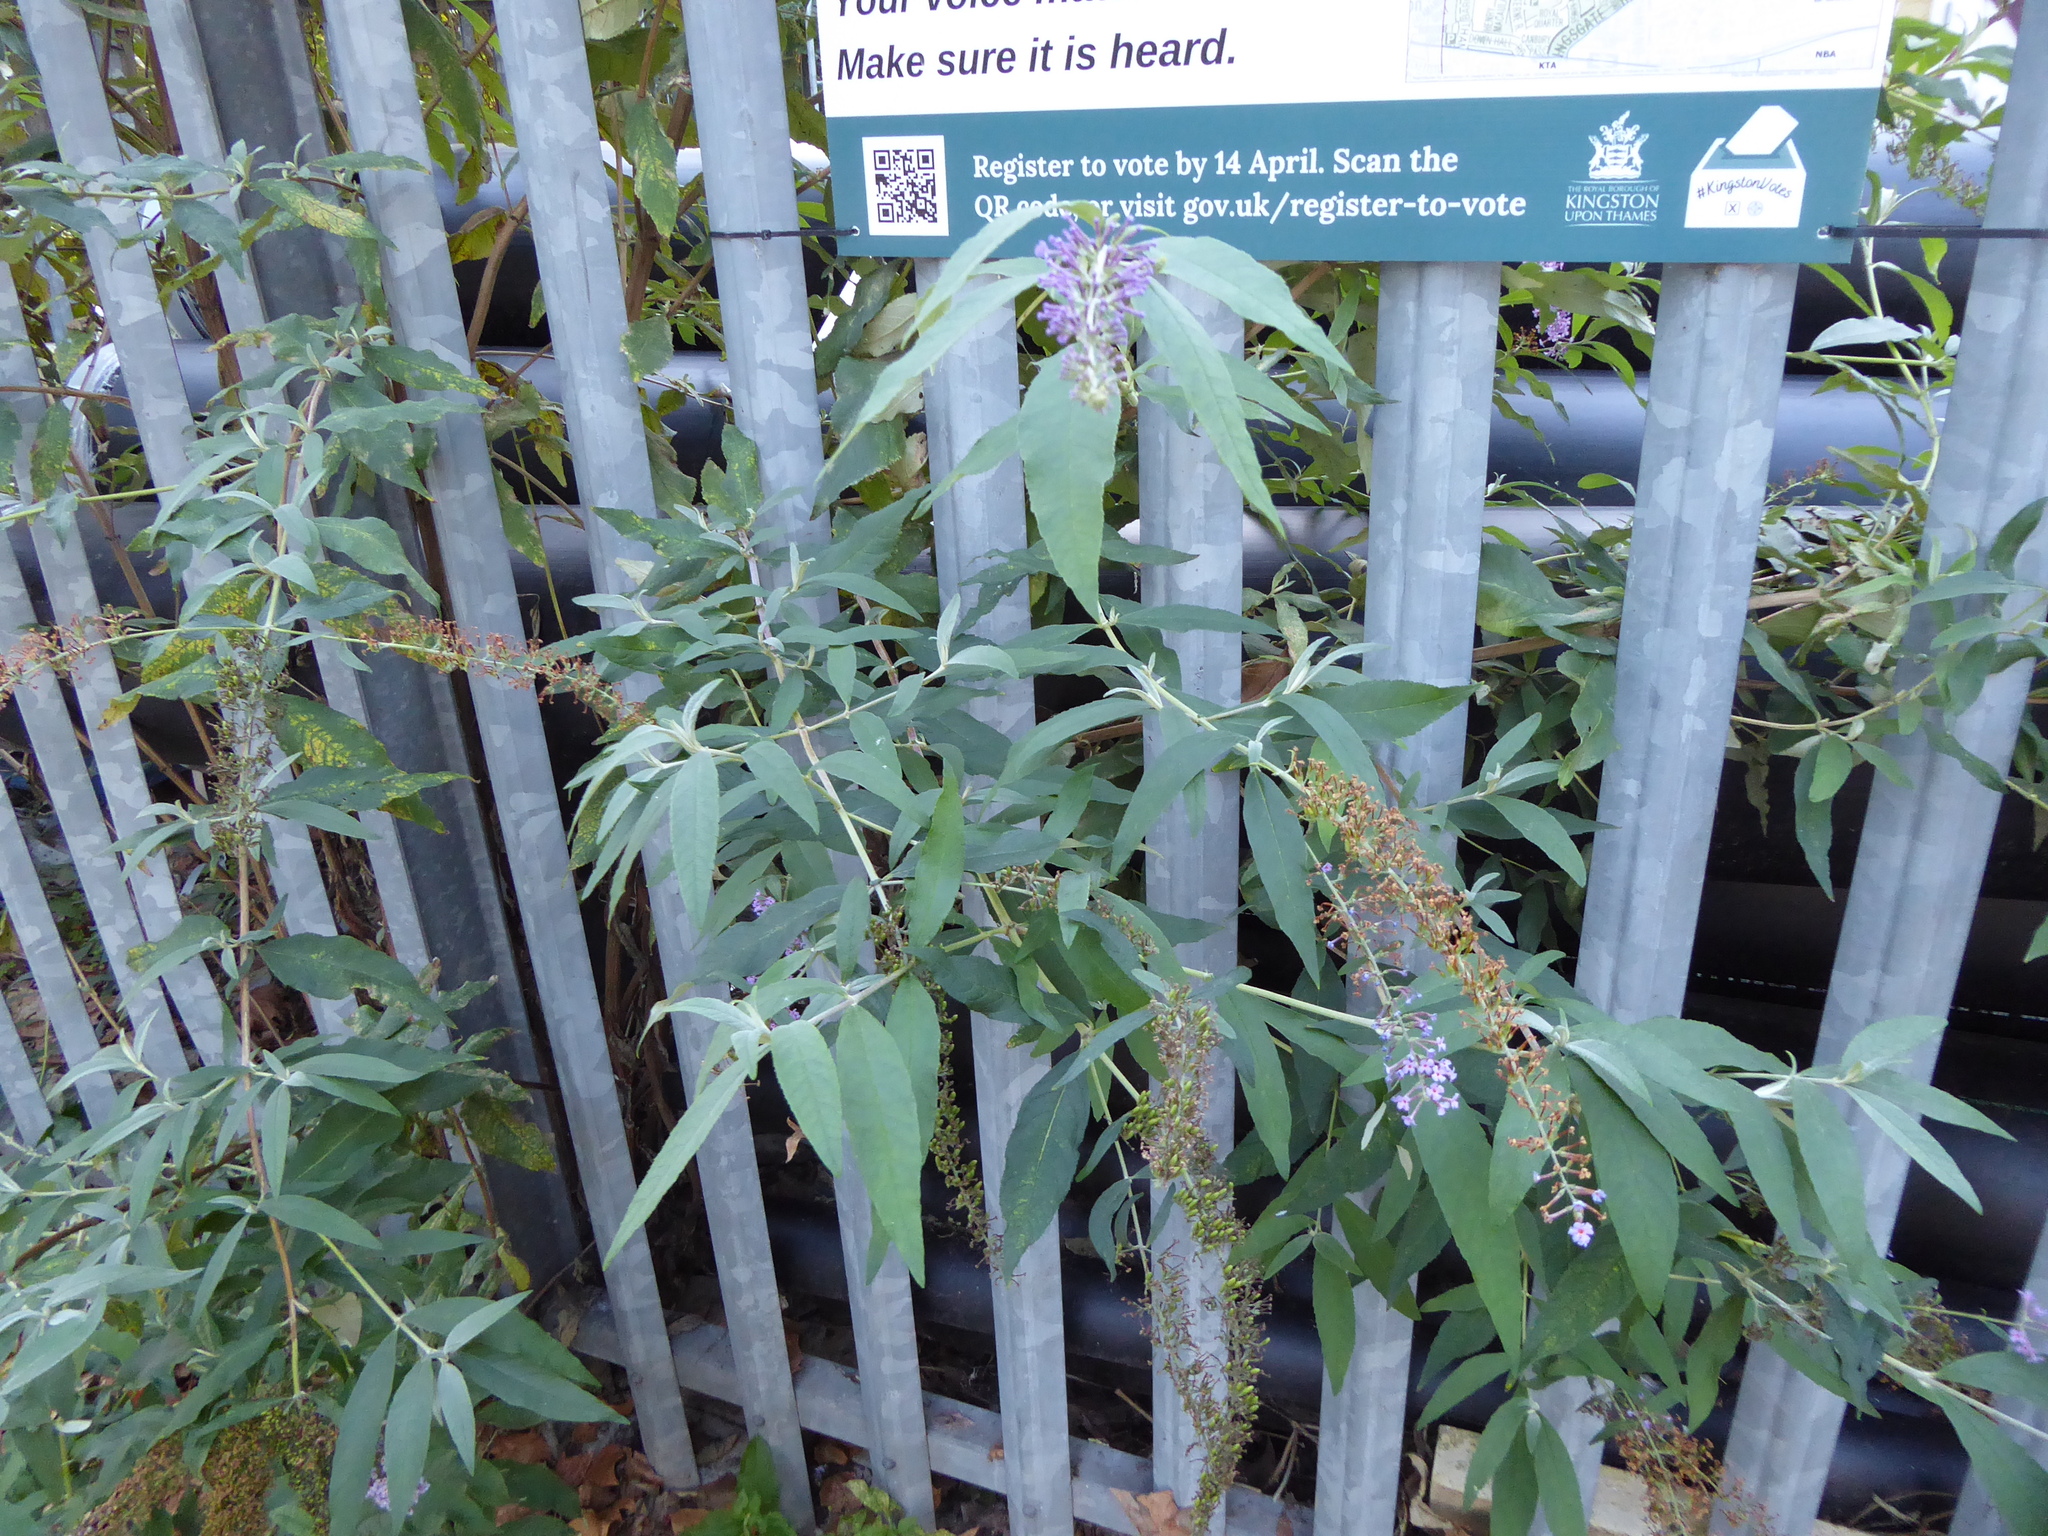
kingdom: Plantae
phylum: Tracheophyta
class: Magnoliopsida
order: Lamiales
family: Scrophulariaceae
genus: Buddleja
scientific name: Buddleja davidii
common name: Butterfly-bush
